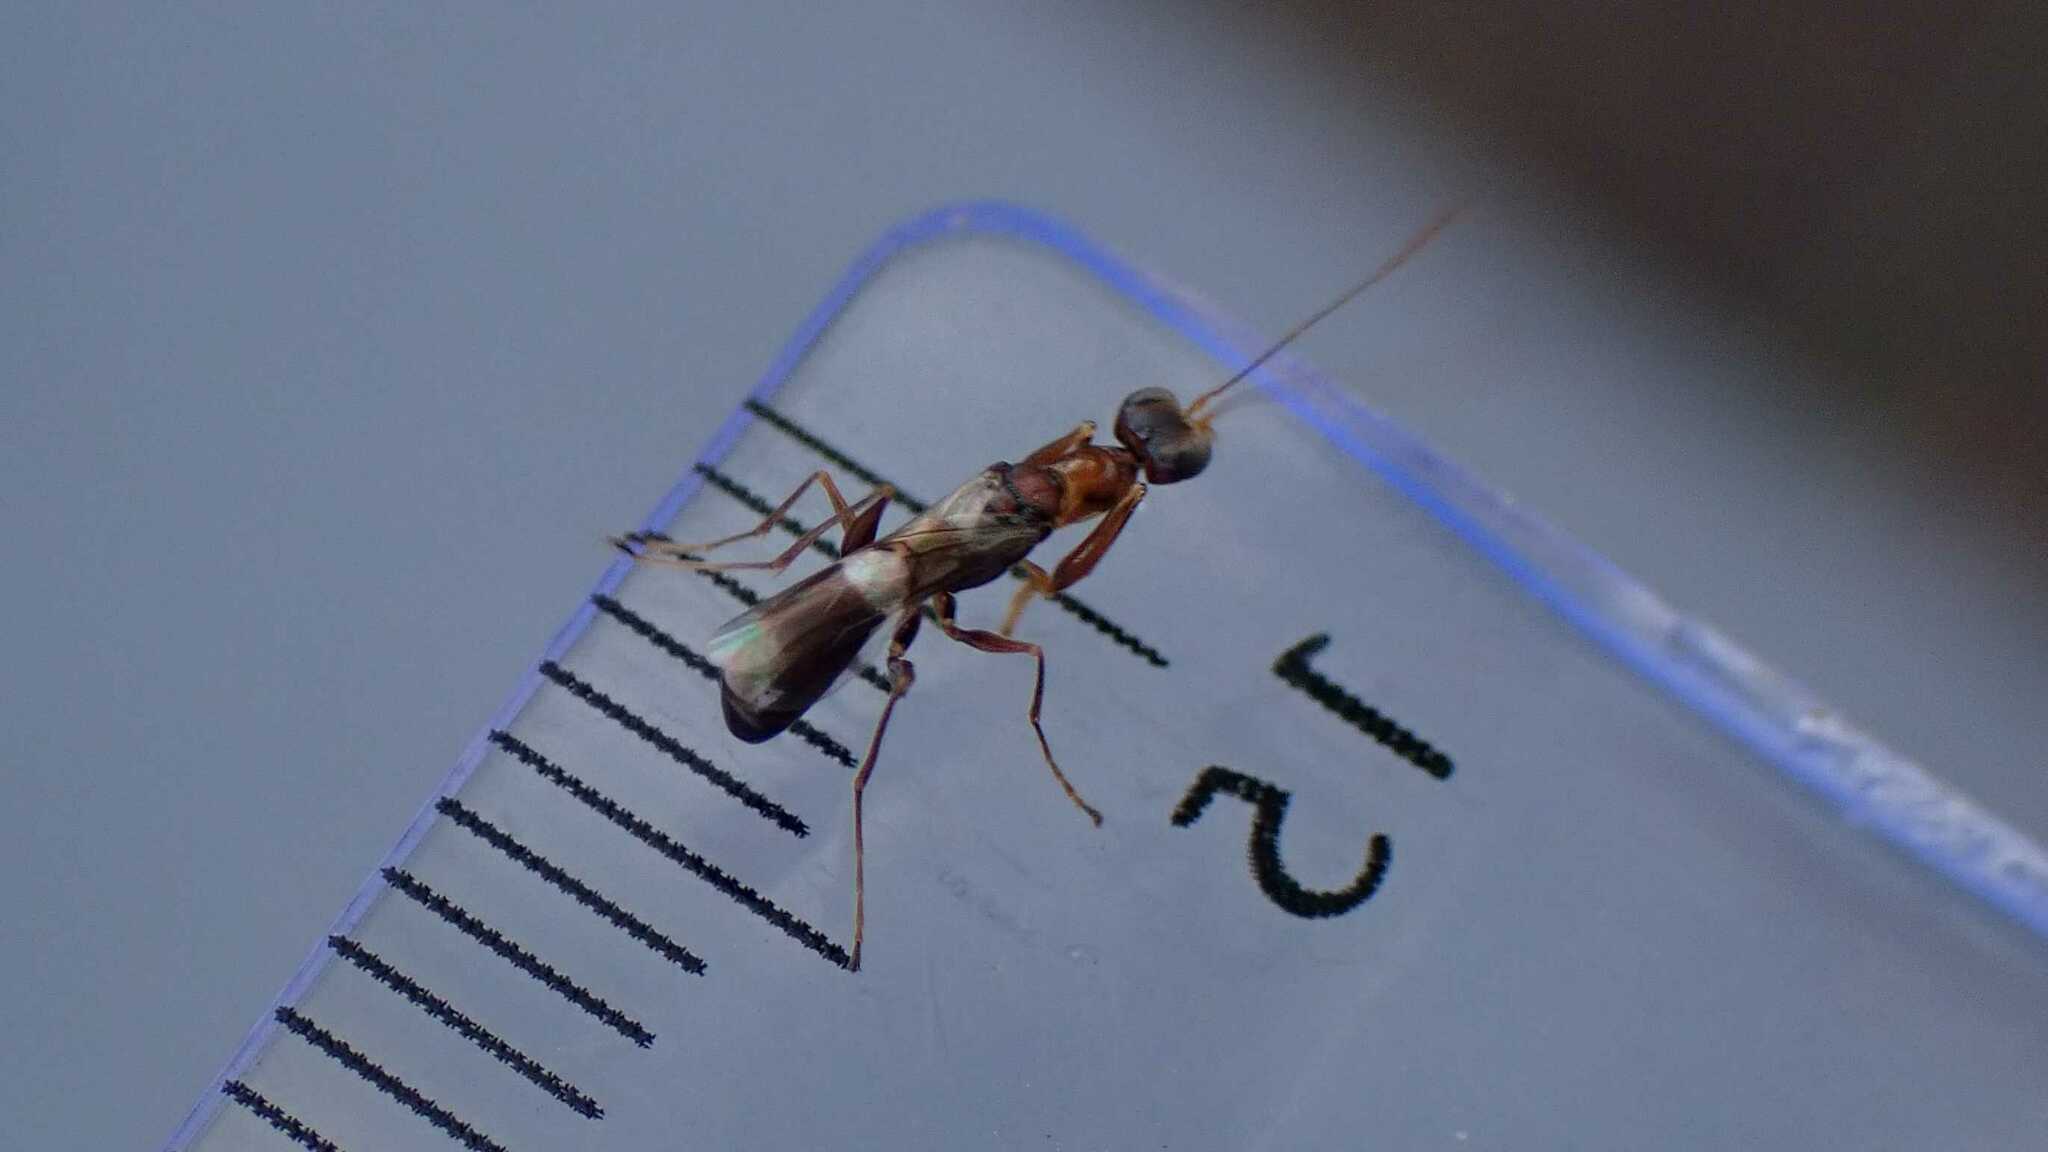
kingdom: Animalia
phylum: Arthropoda
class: Insecta
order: Hymenoptera
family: Pompilidae
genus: Ferreola
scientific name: Ferreola handschini
